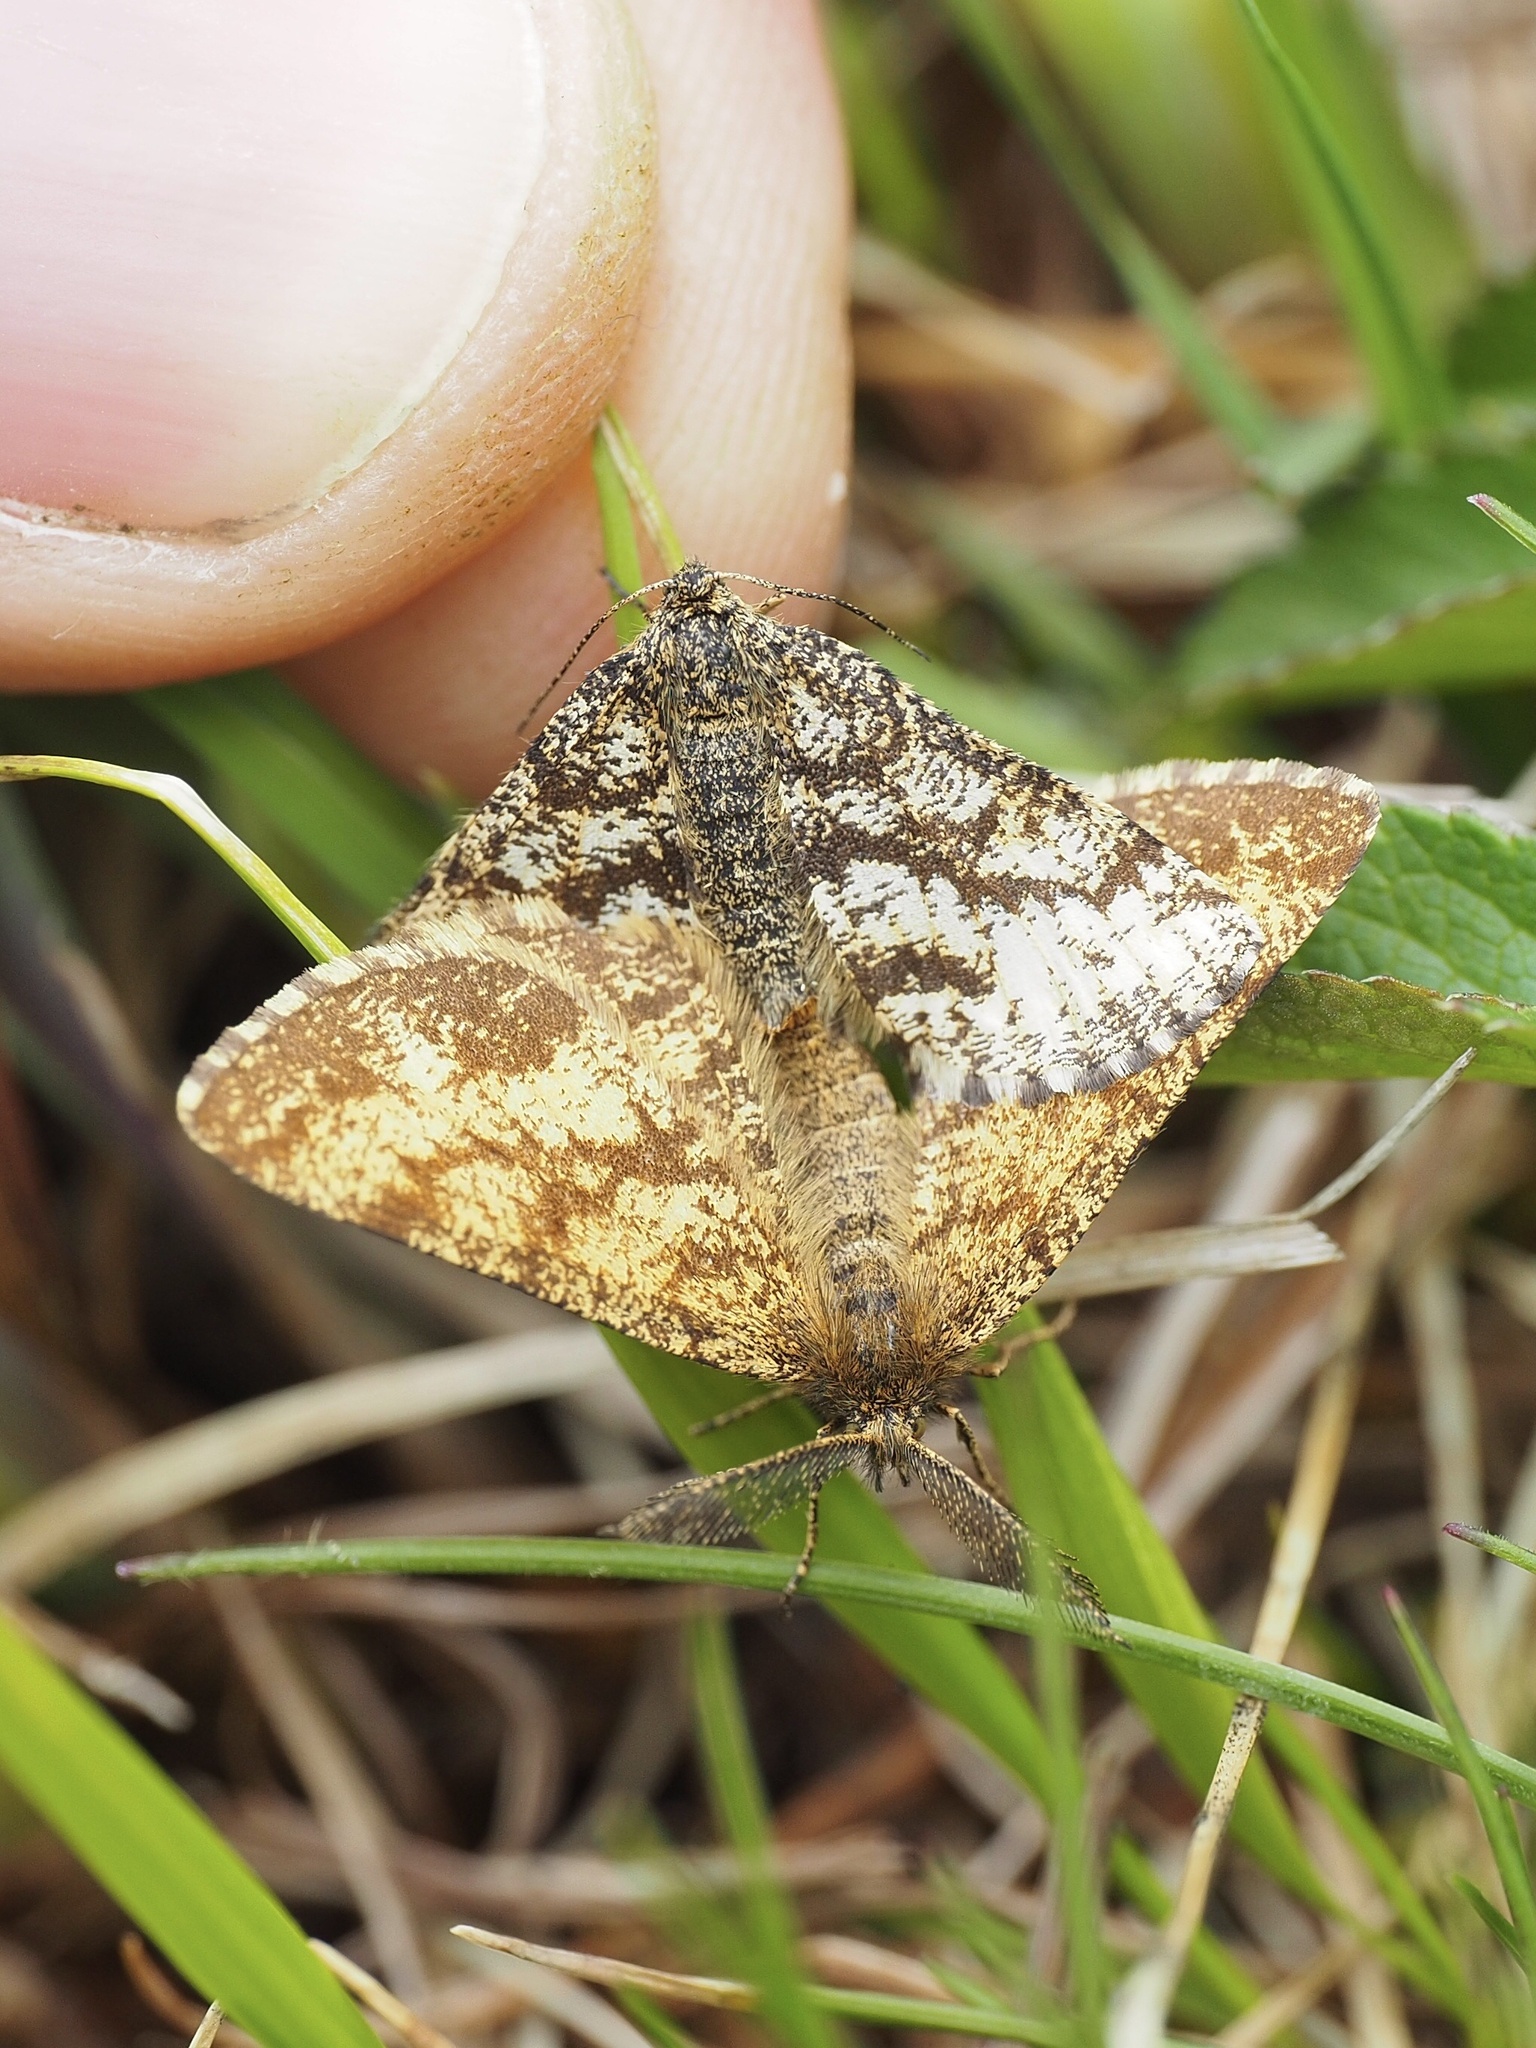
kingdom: Animalia
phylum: Arthropoda
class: Insecta
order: Lepidoptera
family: Geometridae
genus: Ematurga
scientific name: Ematurga atomaria
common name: Common heath
